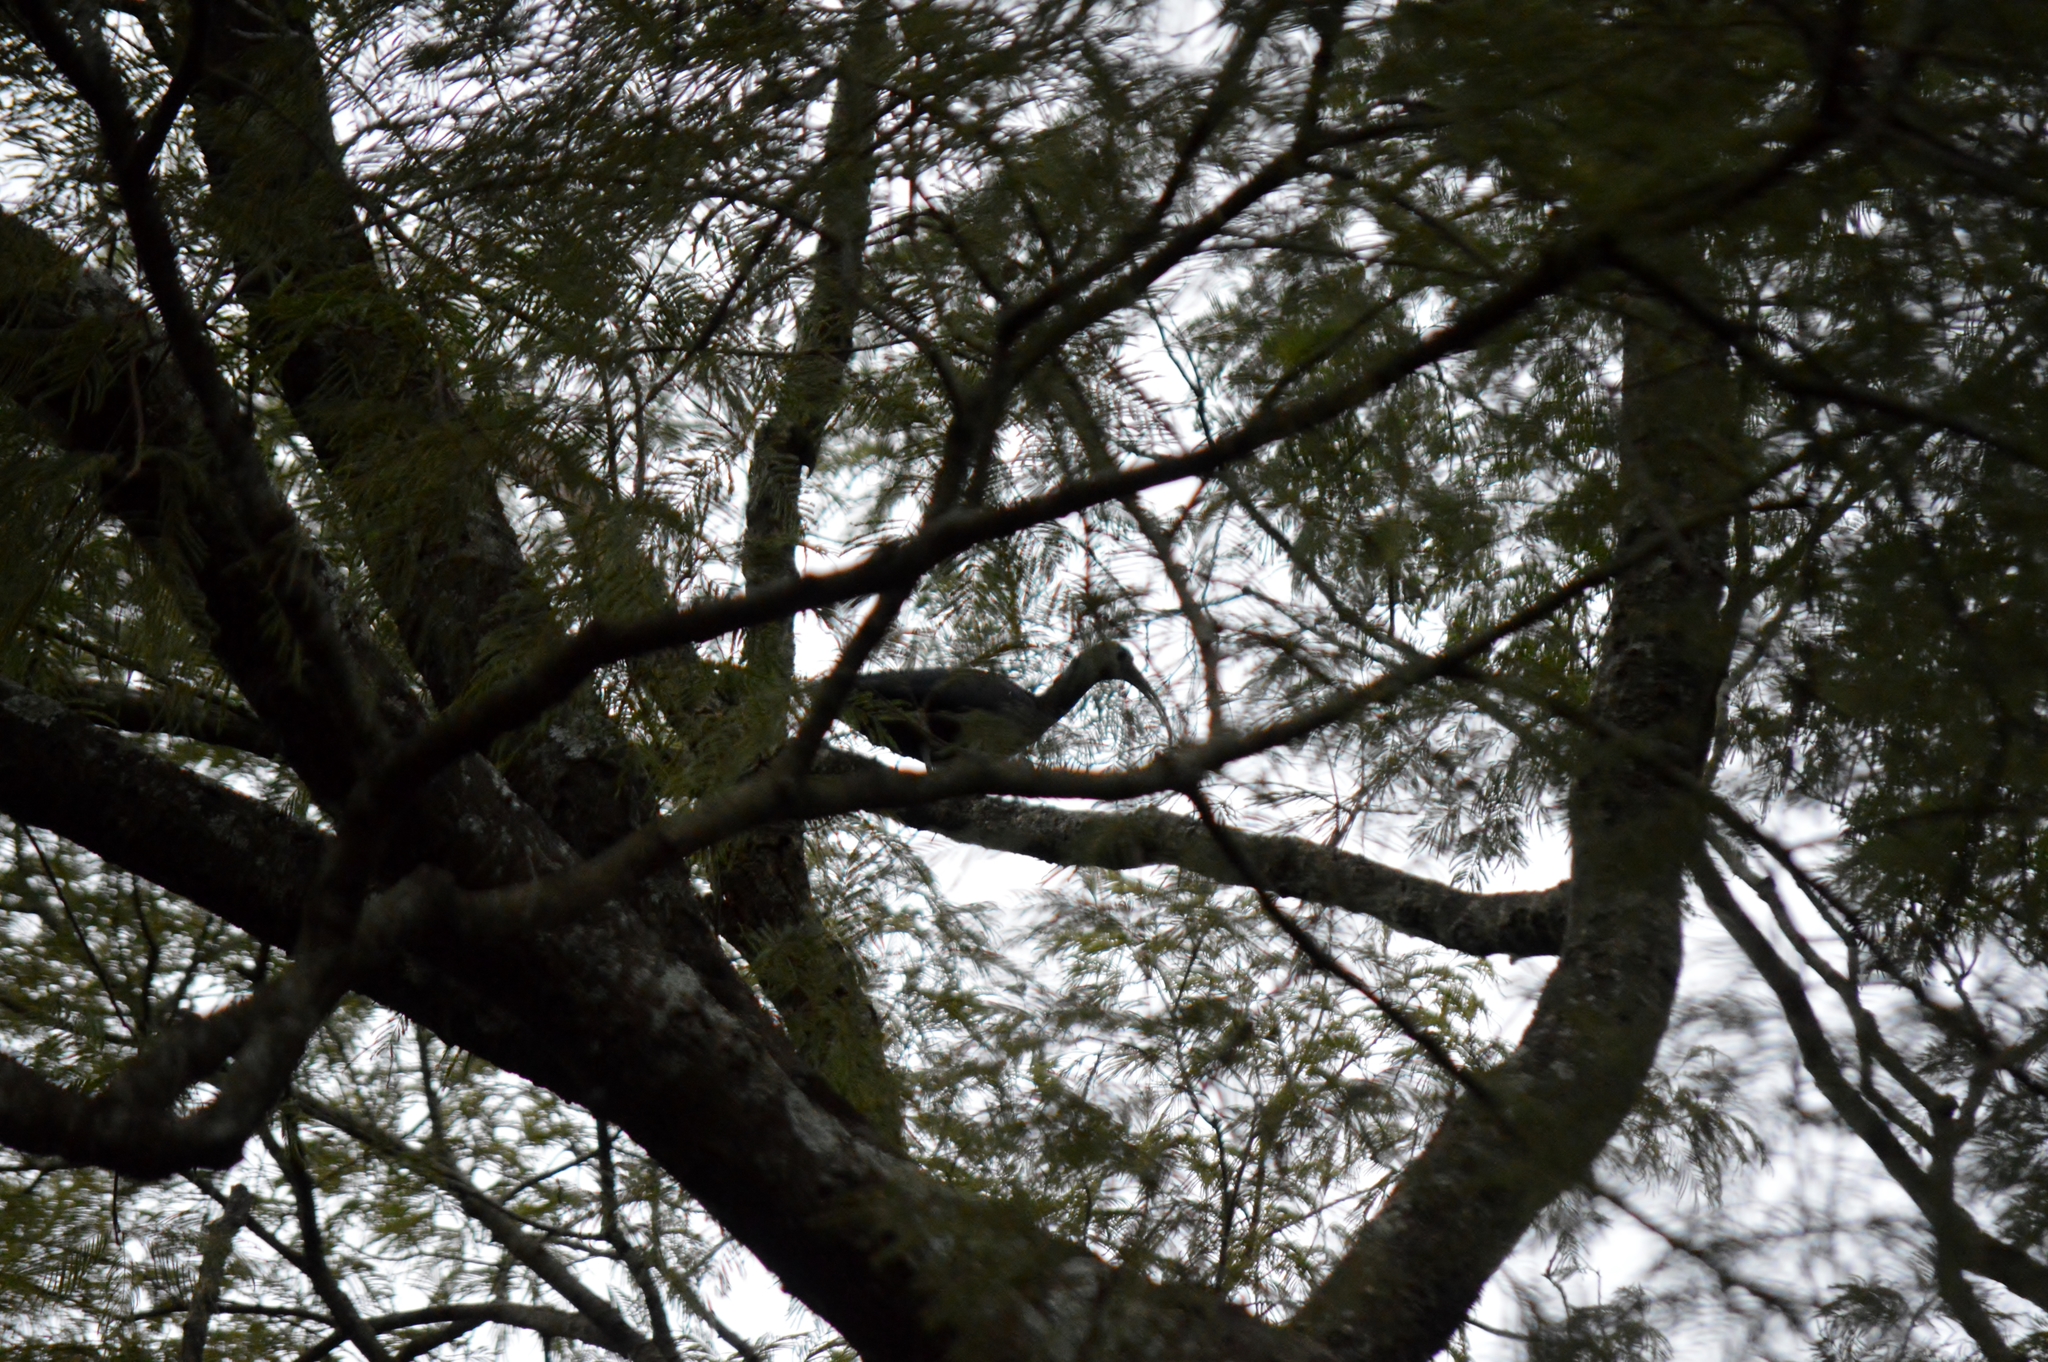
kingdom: Animalia
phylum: Chordata
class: Aves
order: Pelecaniformes
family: Threskiornithidae
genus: Mesembrinibis
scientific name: Mesembrinibis cayennensis
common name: Green ibis
